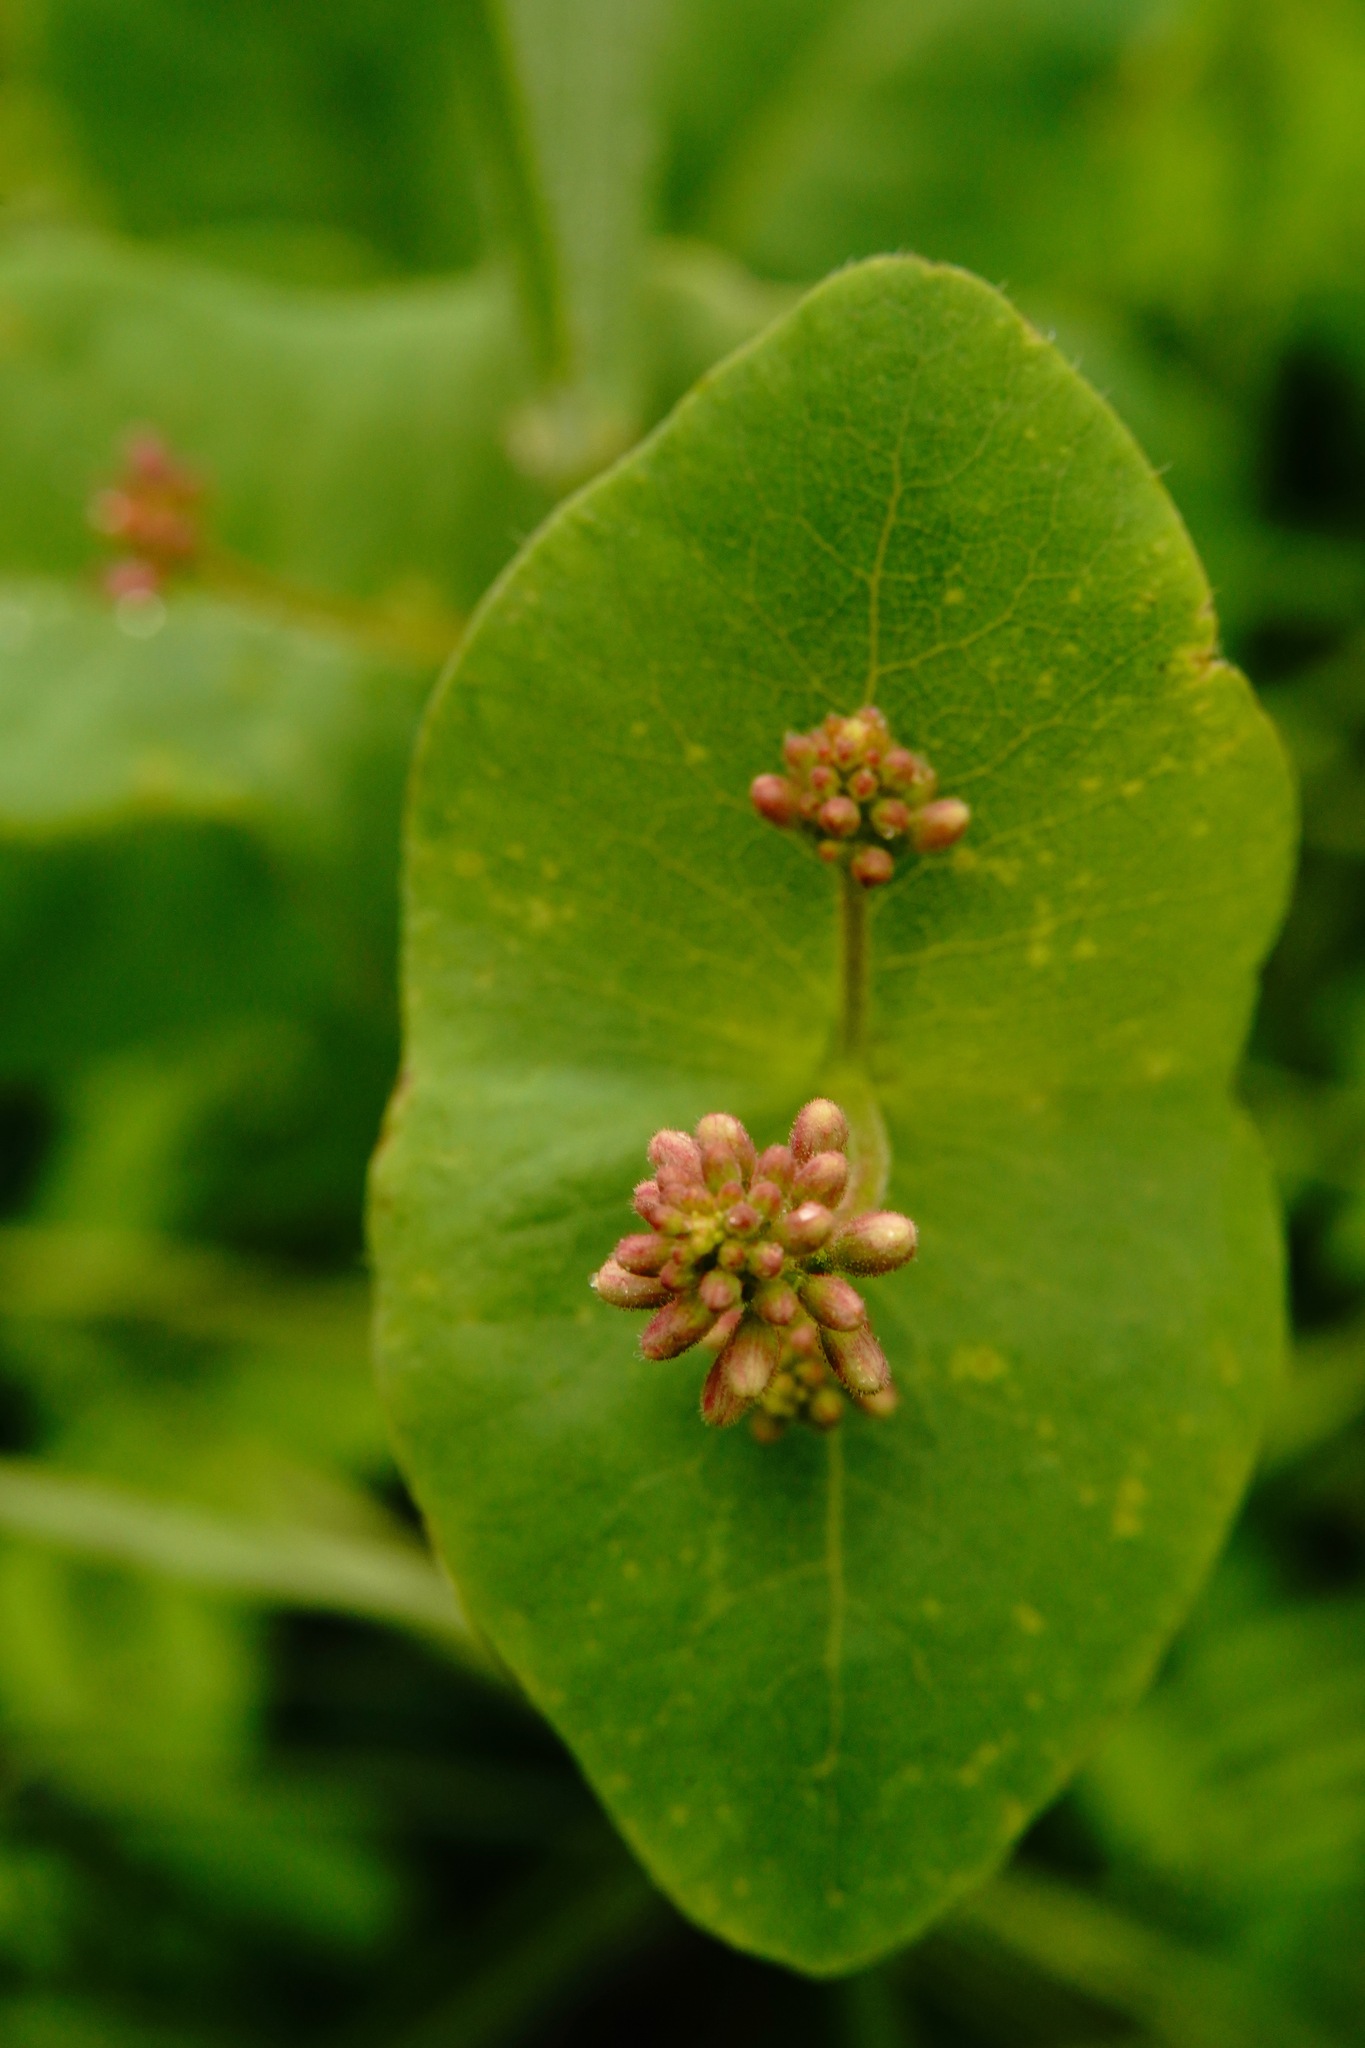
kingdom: Plantae
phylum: Tracheophyta
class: Magnoliopsida
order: Dipsacales
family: Caprifoliaceae
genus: Lonicera
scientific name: Lonicera hispidula
